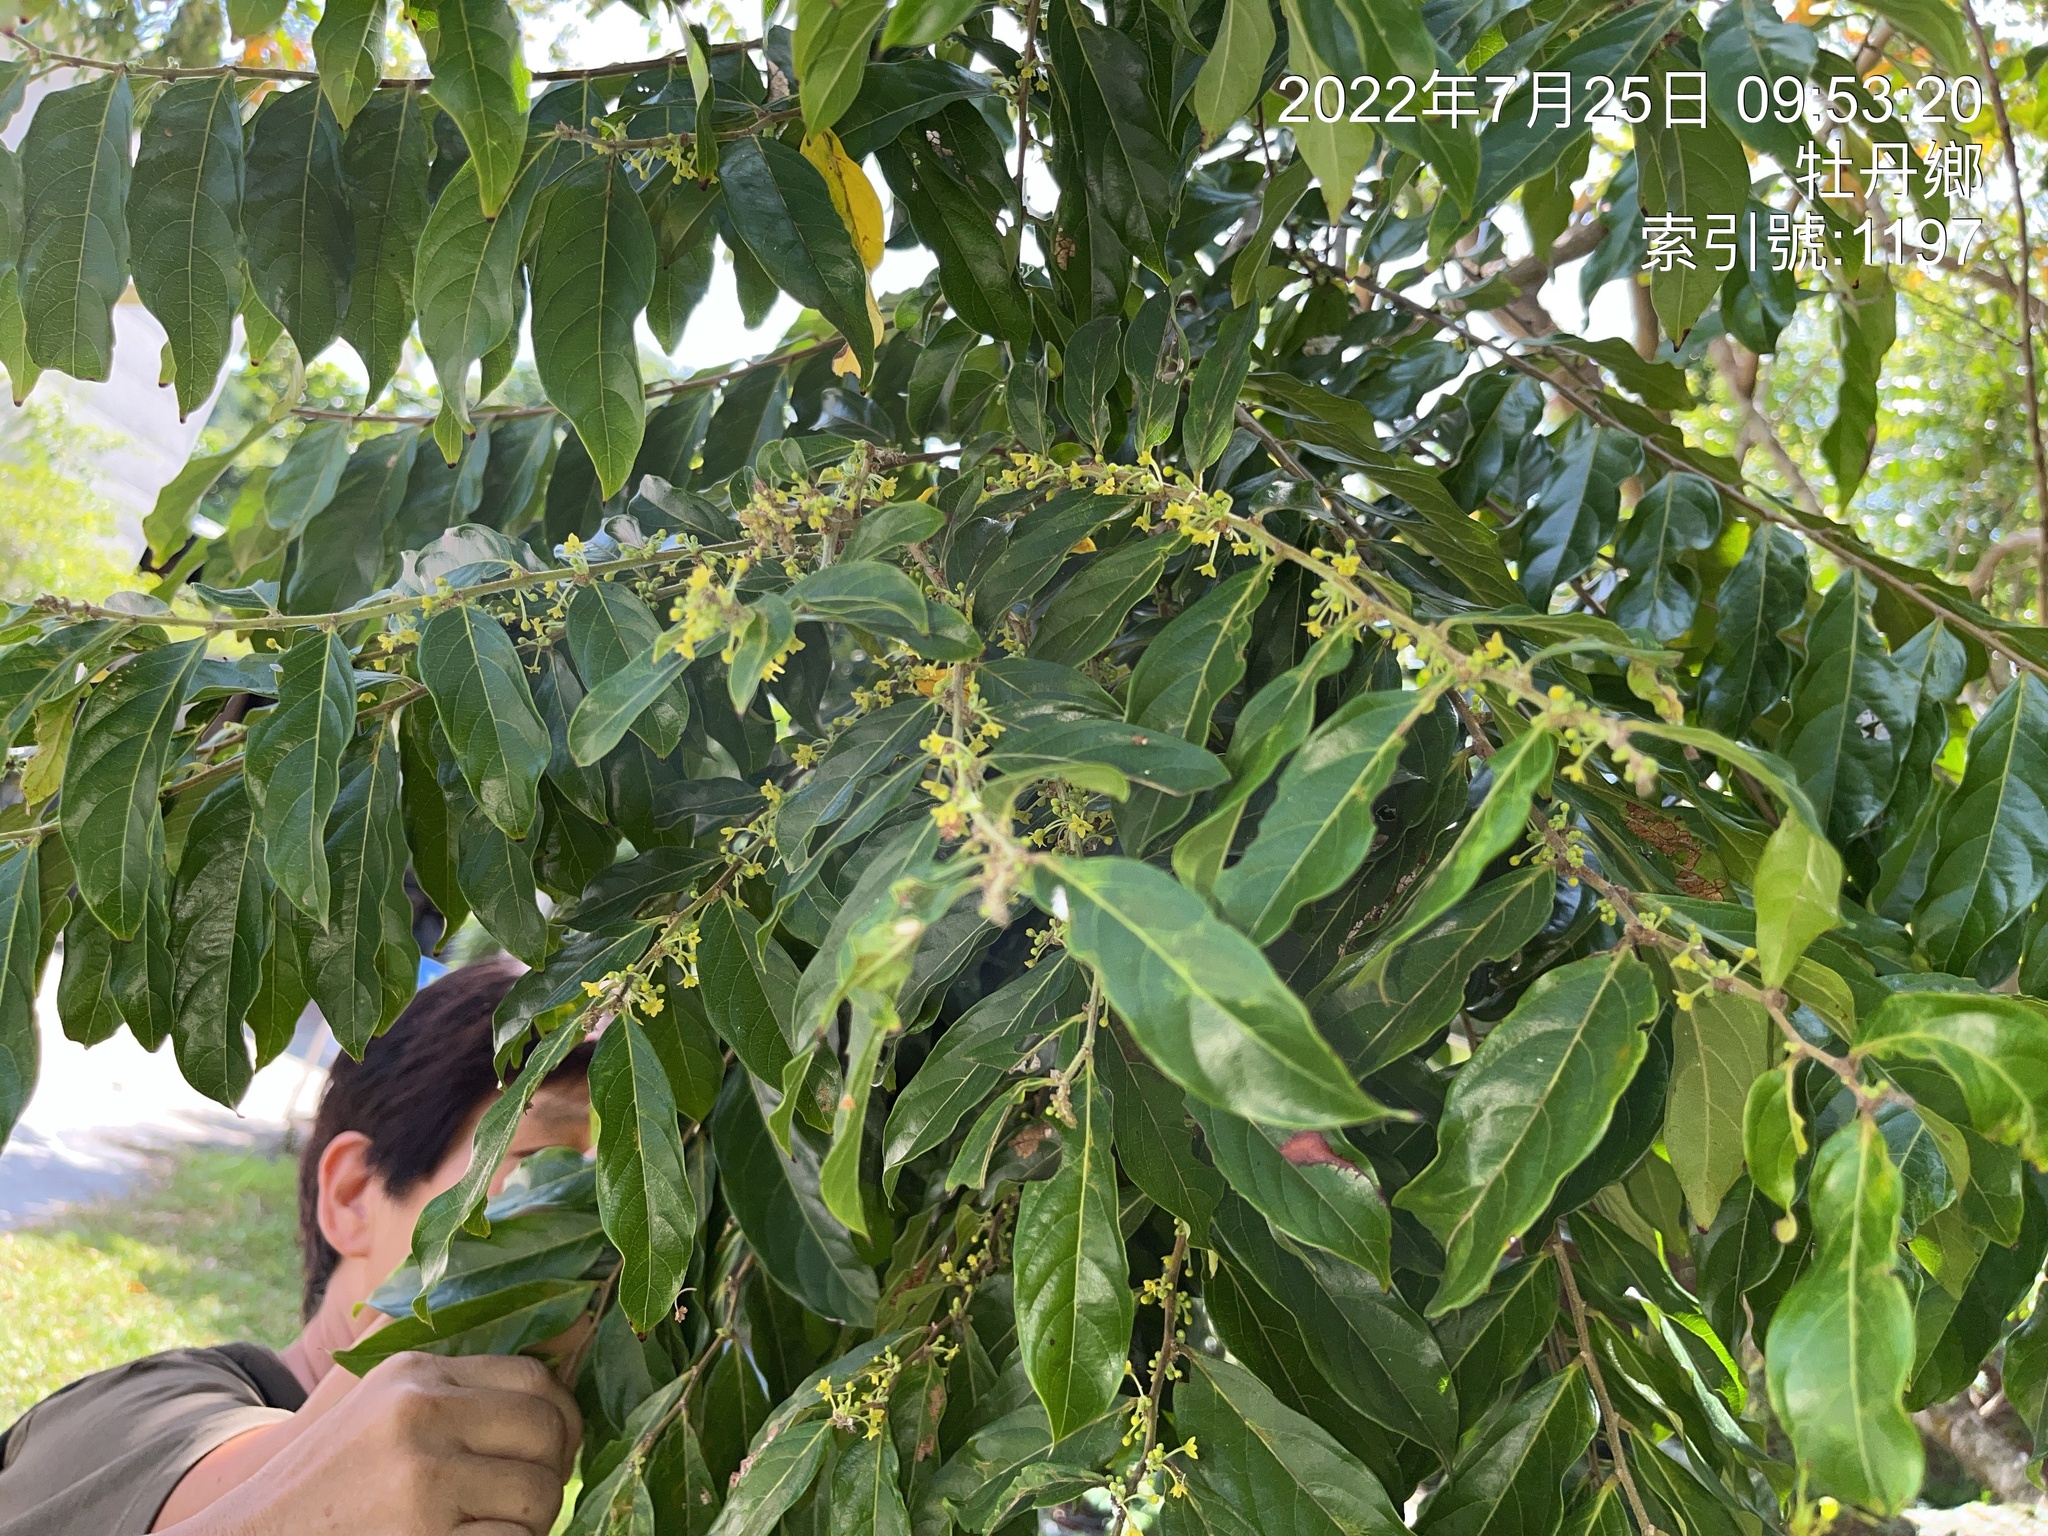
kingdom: Plantae
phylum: Tracheophyta
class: Magnoliopsida
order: Malpighiales
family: Phyllanthaceae
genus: Glochidion
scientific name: Glochidion philippicum
